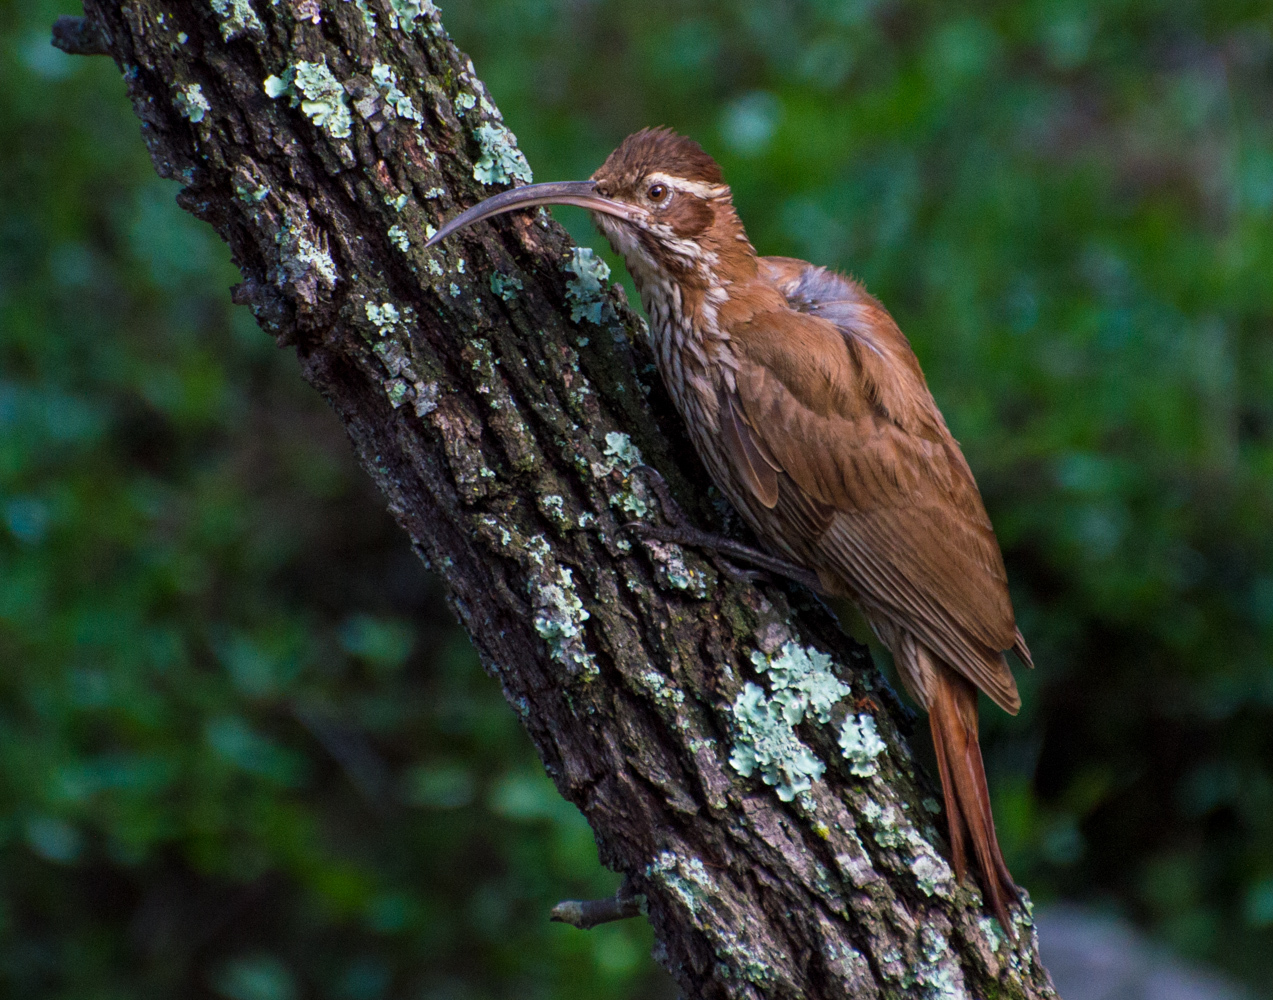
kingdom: Animalia
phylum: Chordata
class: Aves
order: Passeriformes
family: Furnariidae
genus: Drymornis
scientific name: Drymornis bridgesii
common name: Scimitar-billed woodcreeper
